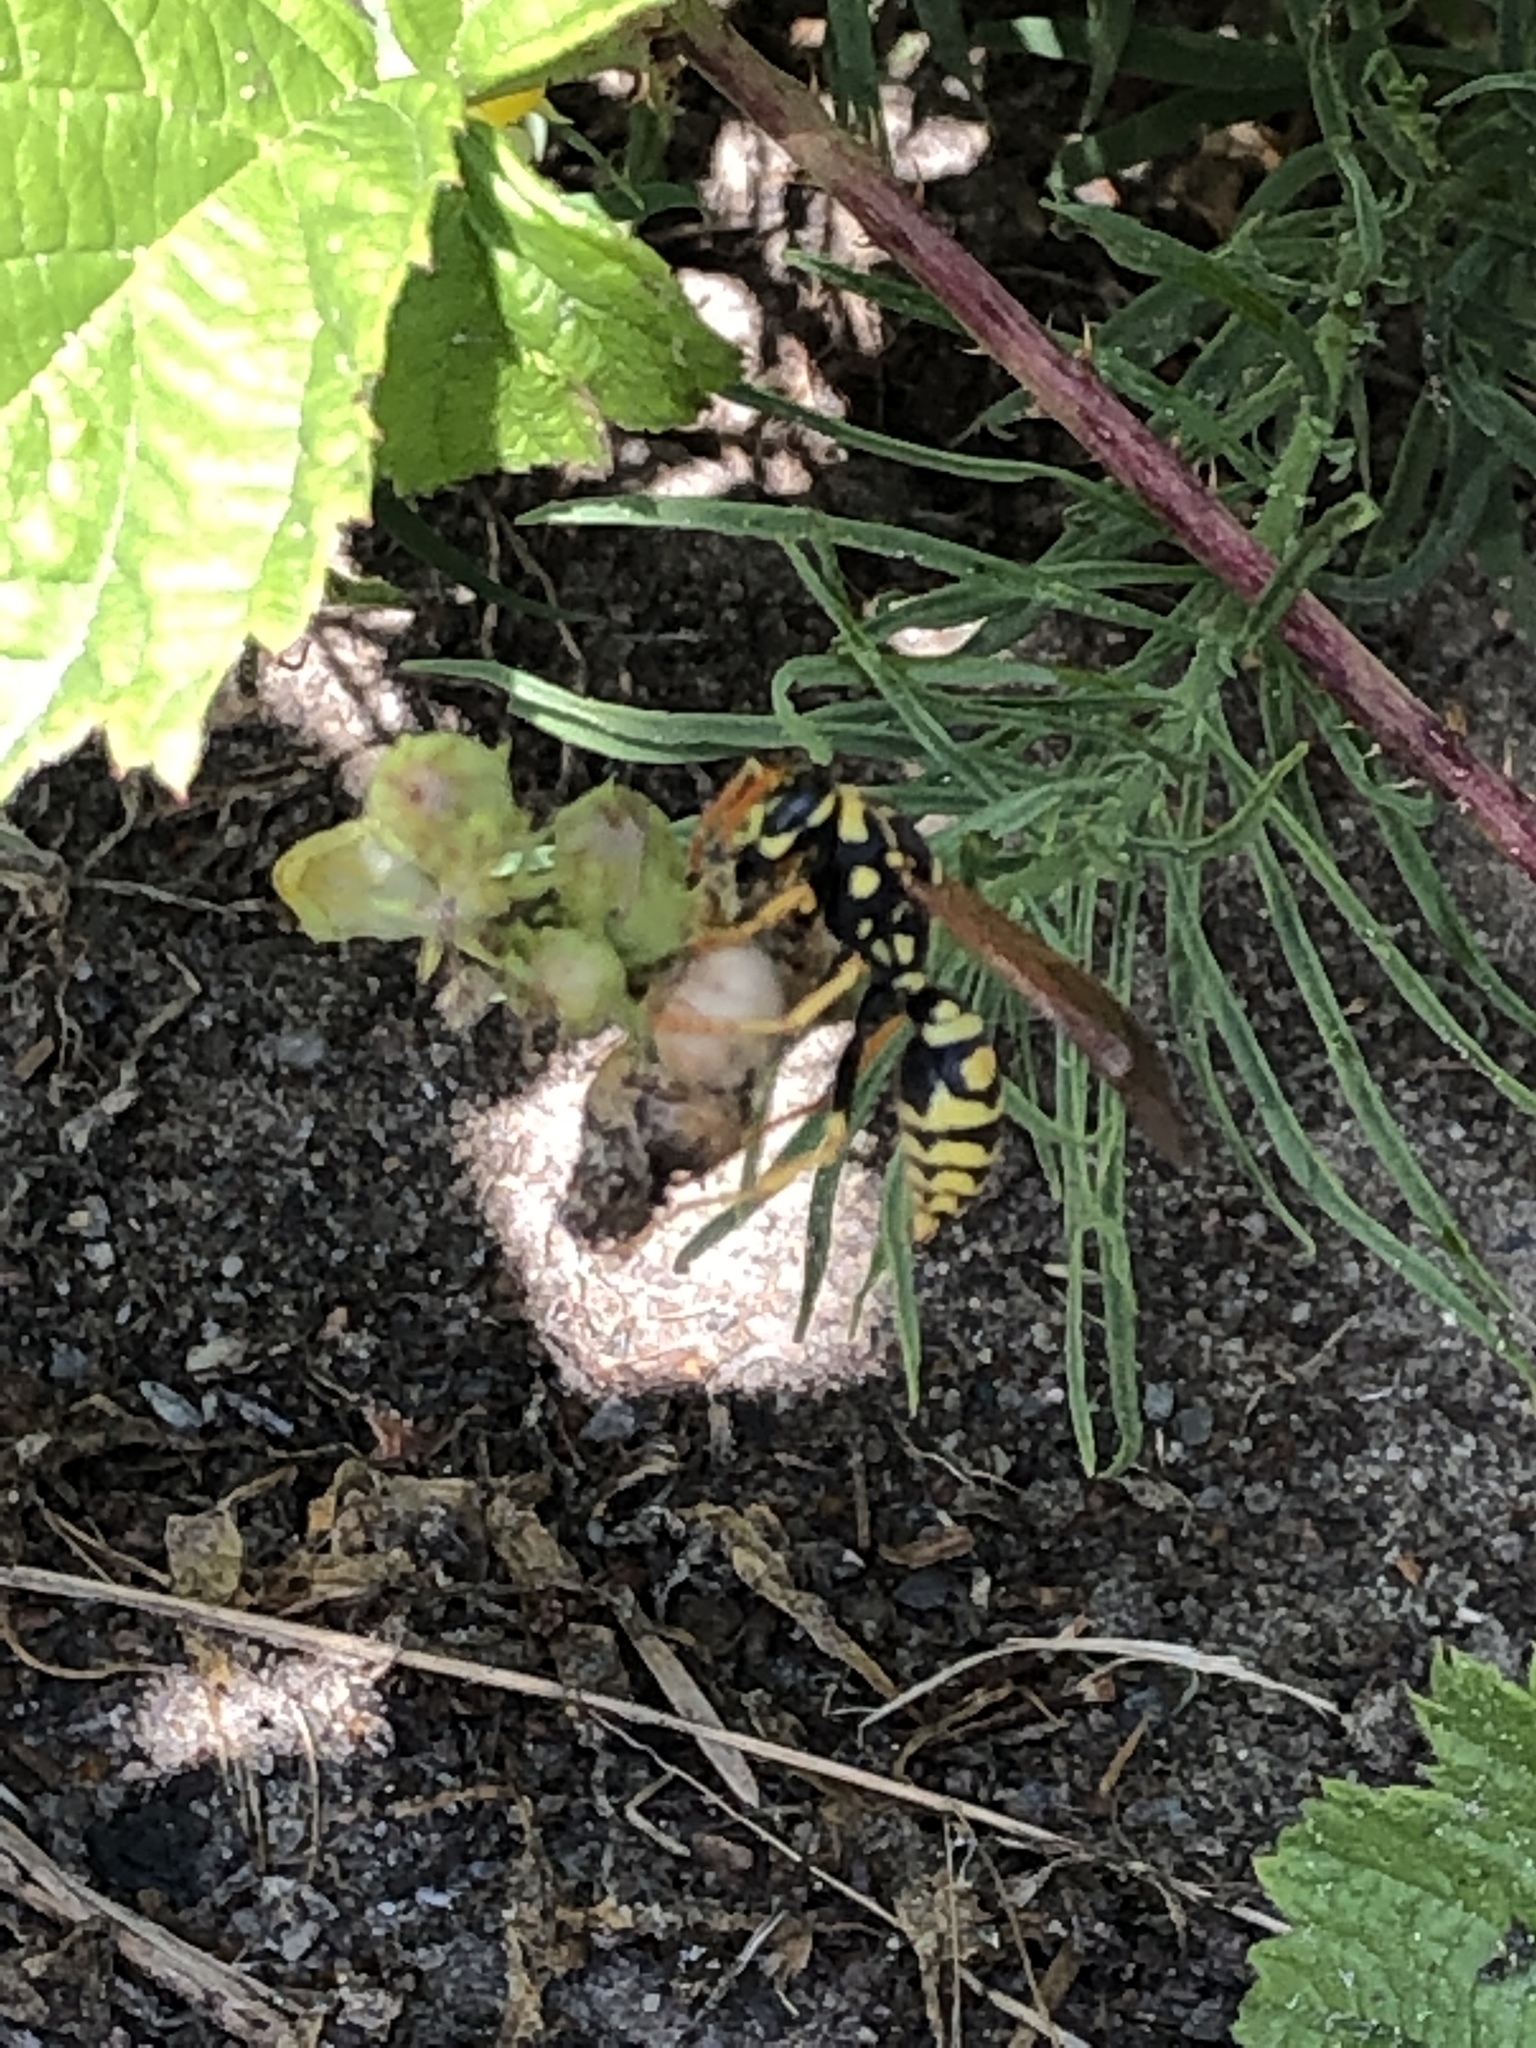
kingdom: Animalia
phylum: Arthropoda
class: Insecta
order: Hymenoptera
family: Eumenidae
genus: Polistes
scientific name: Polistes dominula
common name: Paper wasp
